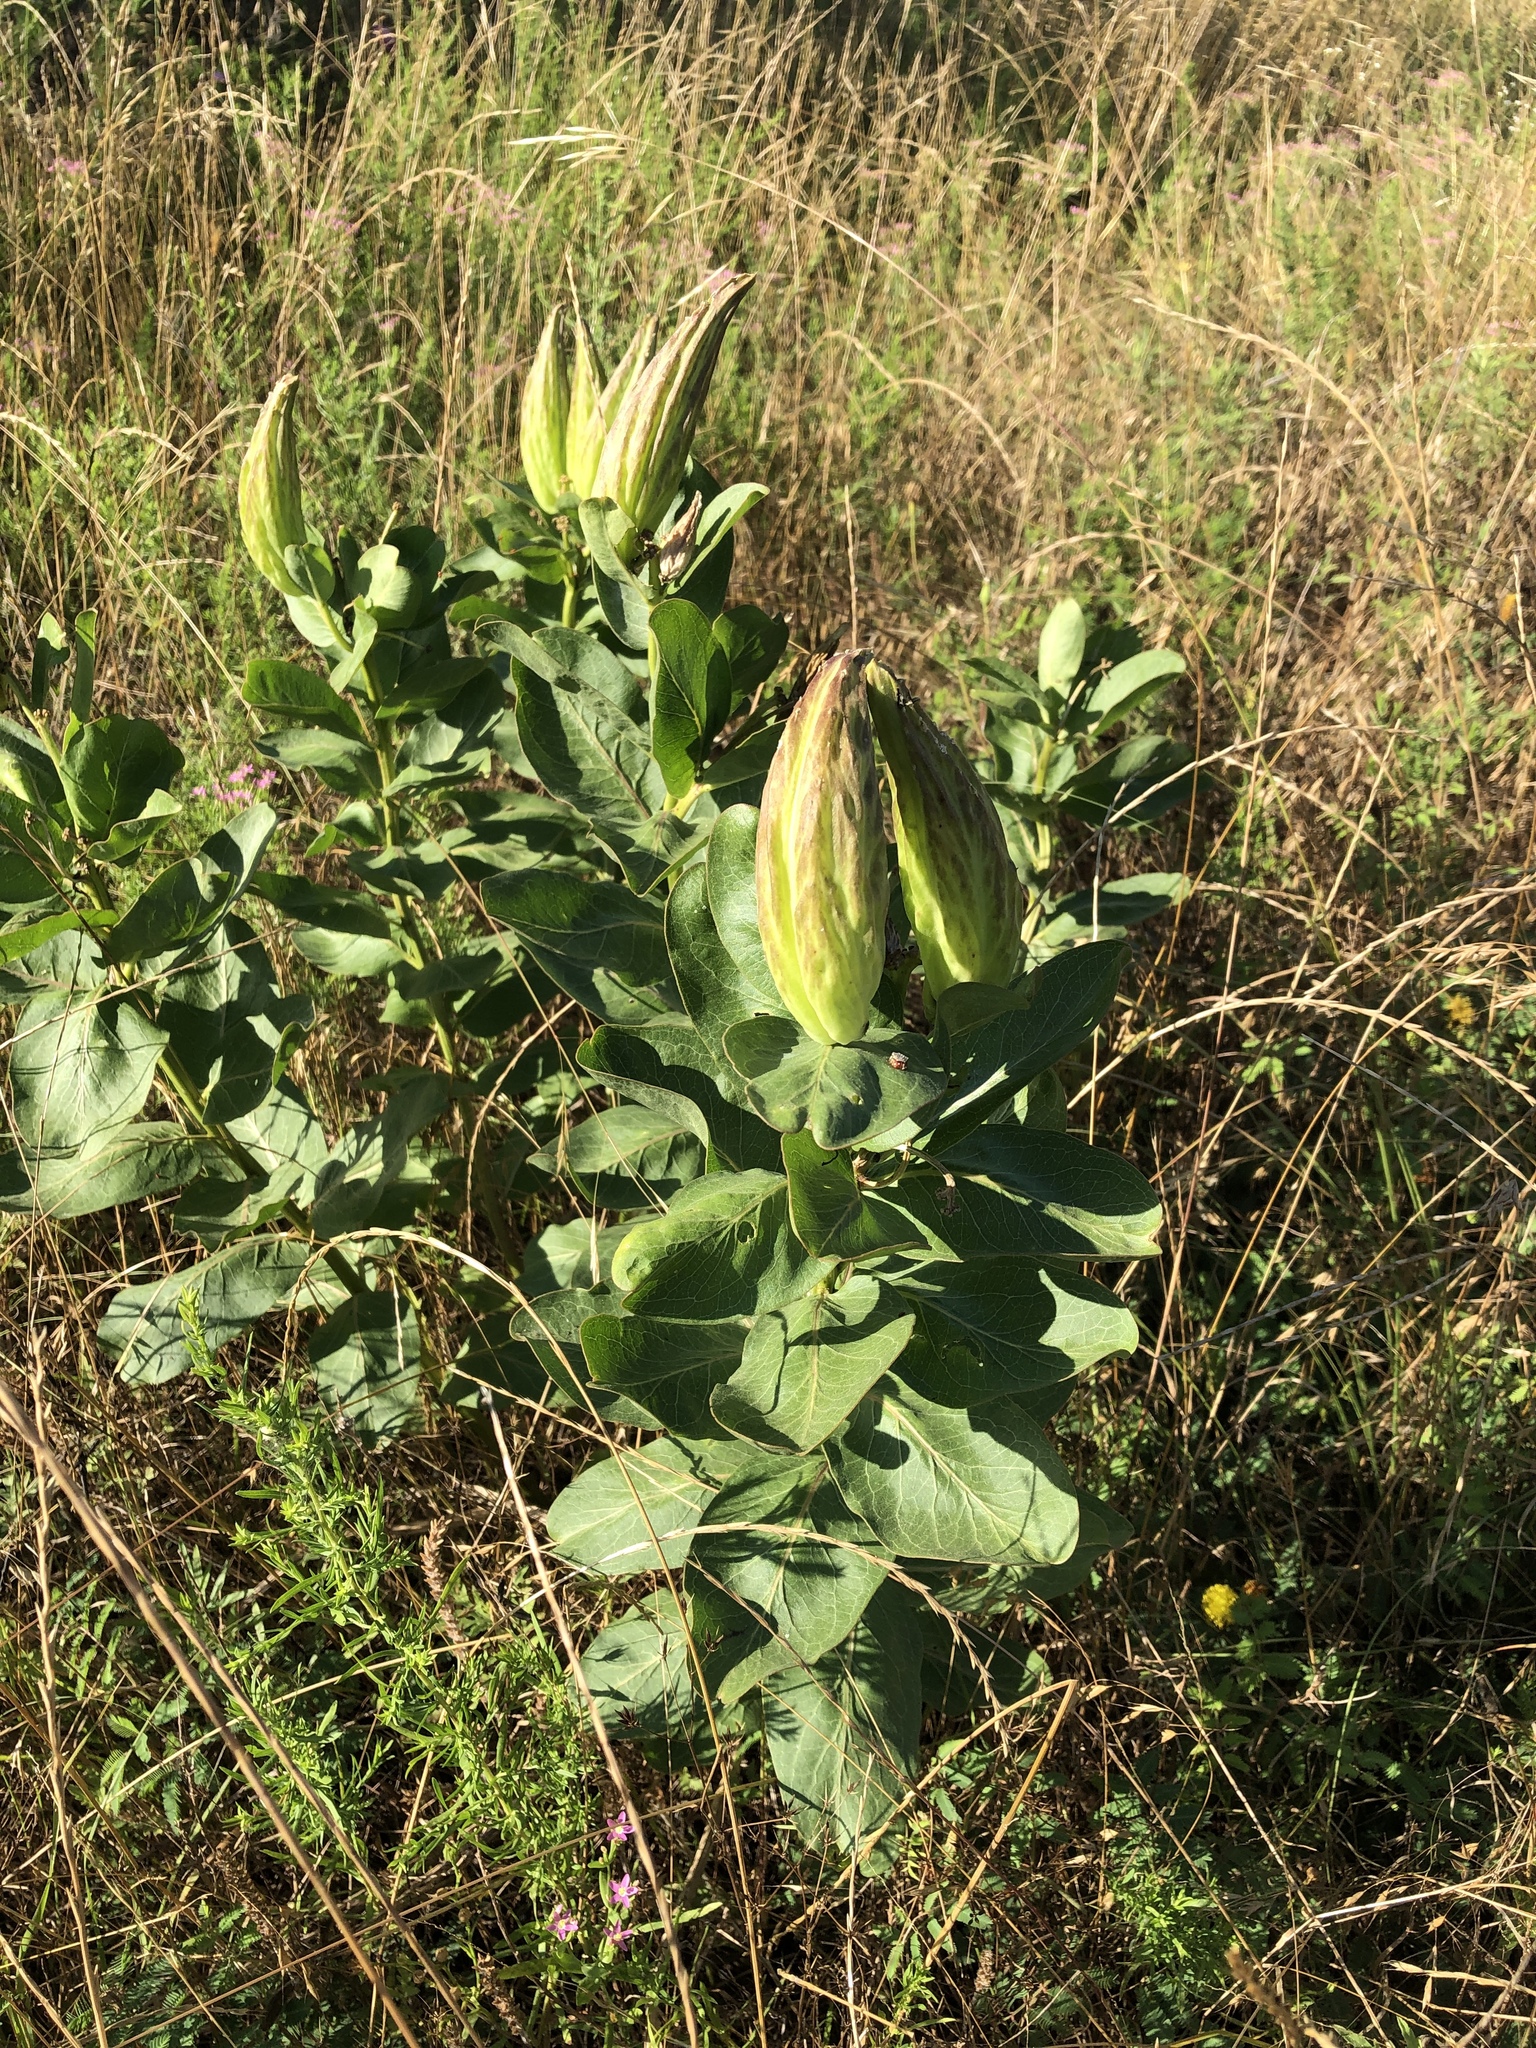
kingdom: Plantae
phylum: Tracheophyta
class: Magnoliopsida
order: Gentianales
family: Apocynaceae
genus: Asclepias
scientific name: Asclepias viridis
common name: Antelope-horns
